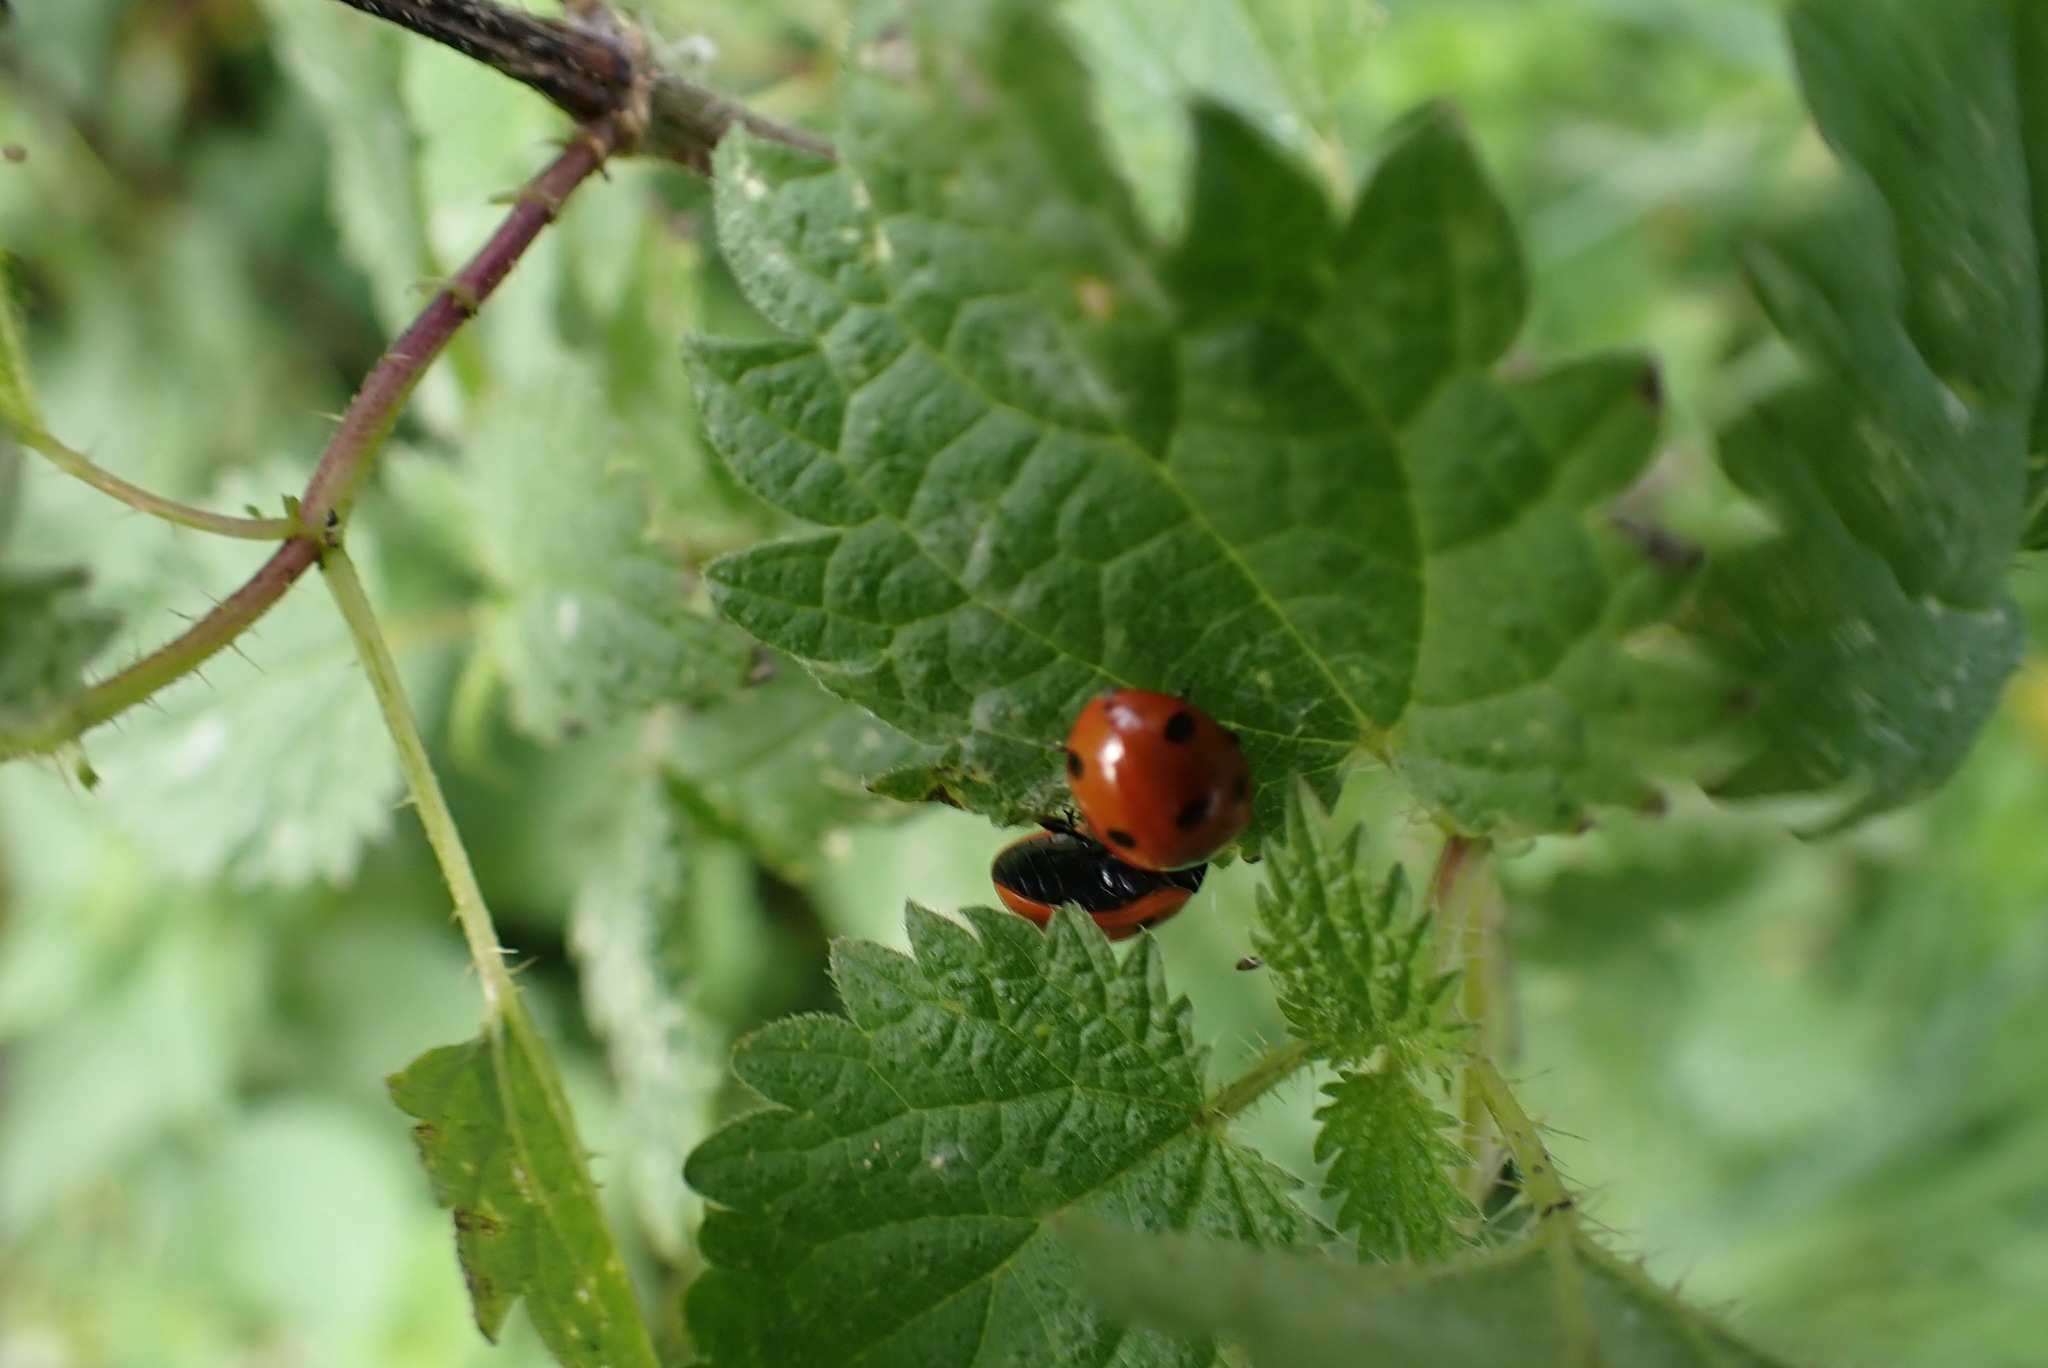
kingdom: Animalia
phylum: Arthropoda
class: Insecta
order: Coleoptera
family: Coccinellidae
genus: Coccinella
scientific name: Coccinella septempunctata
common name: Sevenspotted lady beetle
